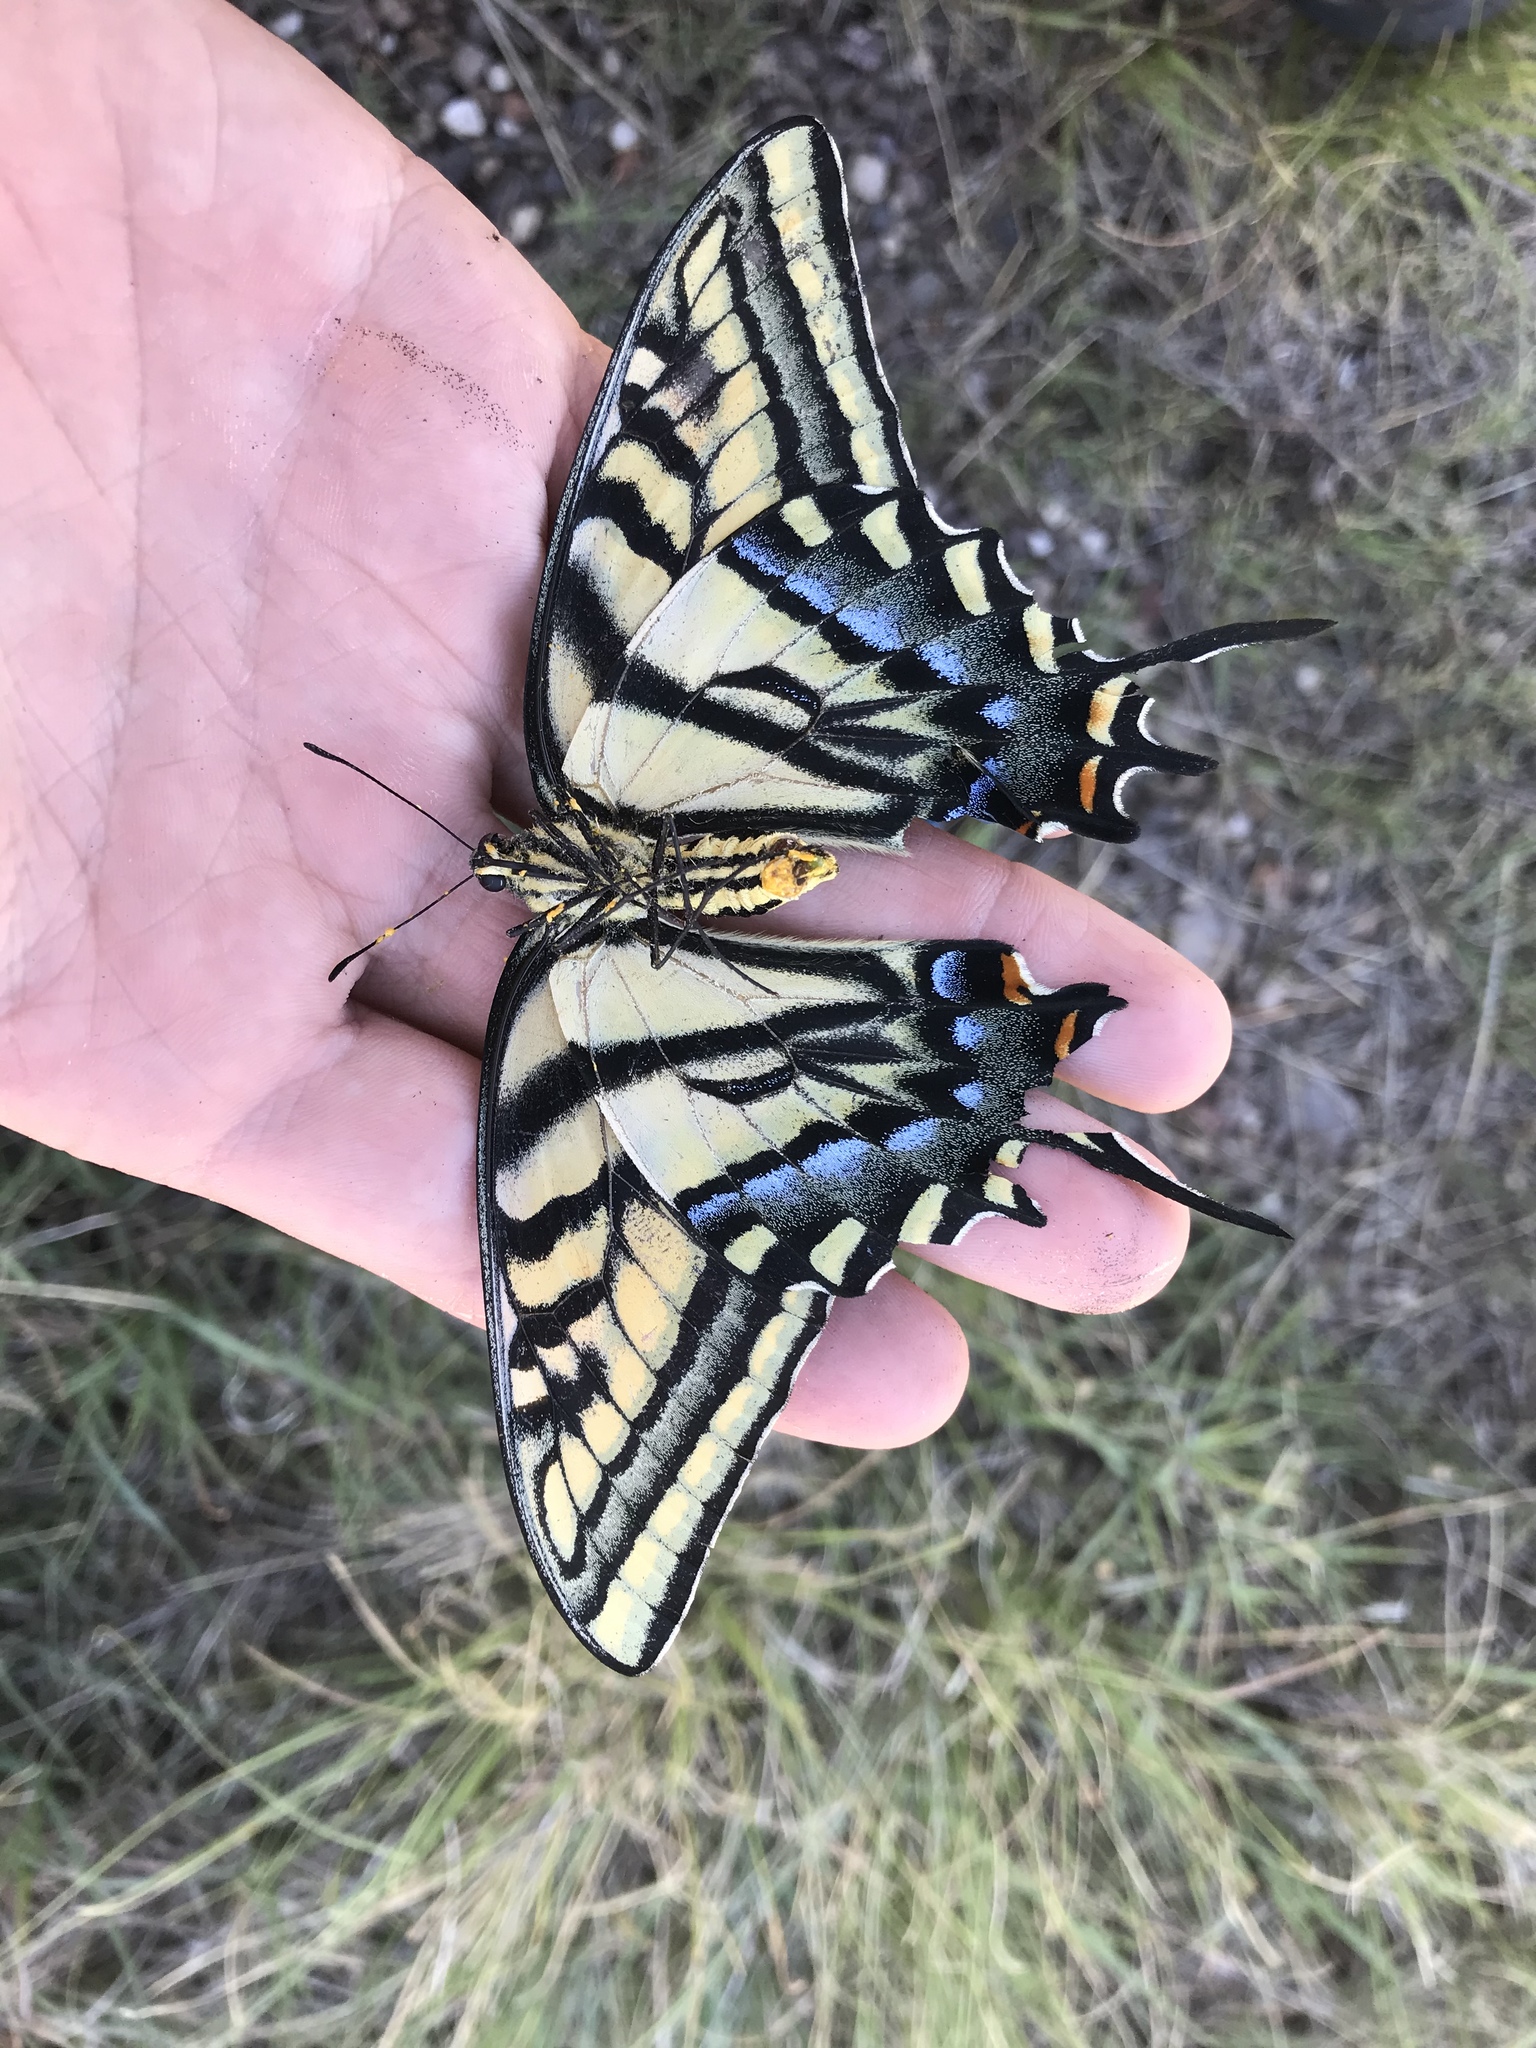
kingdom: Animalia
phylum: Arthropoda
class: Insecta
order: Lepidoptera
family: Papilionidae
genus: Papilio
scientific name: Papilio multicaudata
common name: Two-tailed tiger swallowtail
